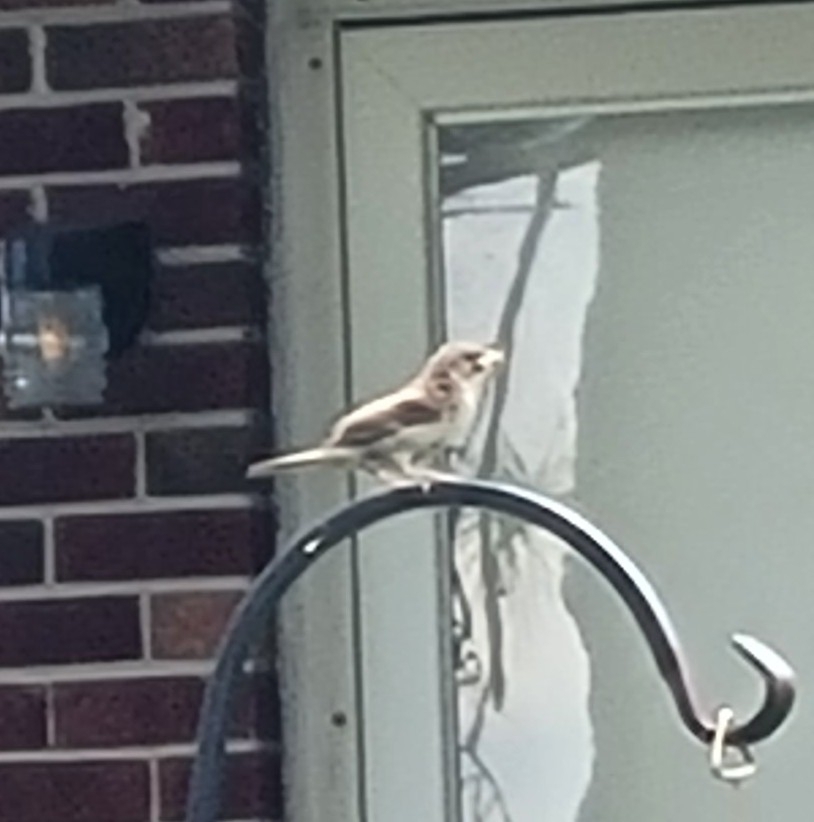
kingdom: Animalia
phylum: Chordata
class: Aves
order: Passeriformes
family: Passeridae
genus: Passer
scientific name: Passer domesticus
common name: House sparrow
